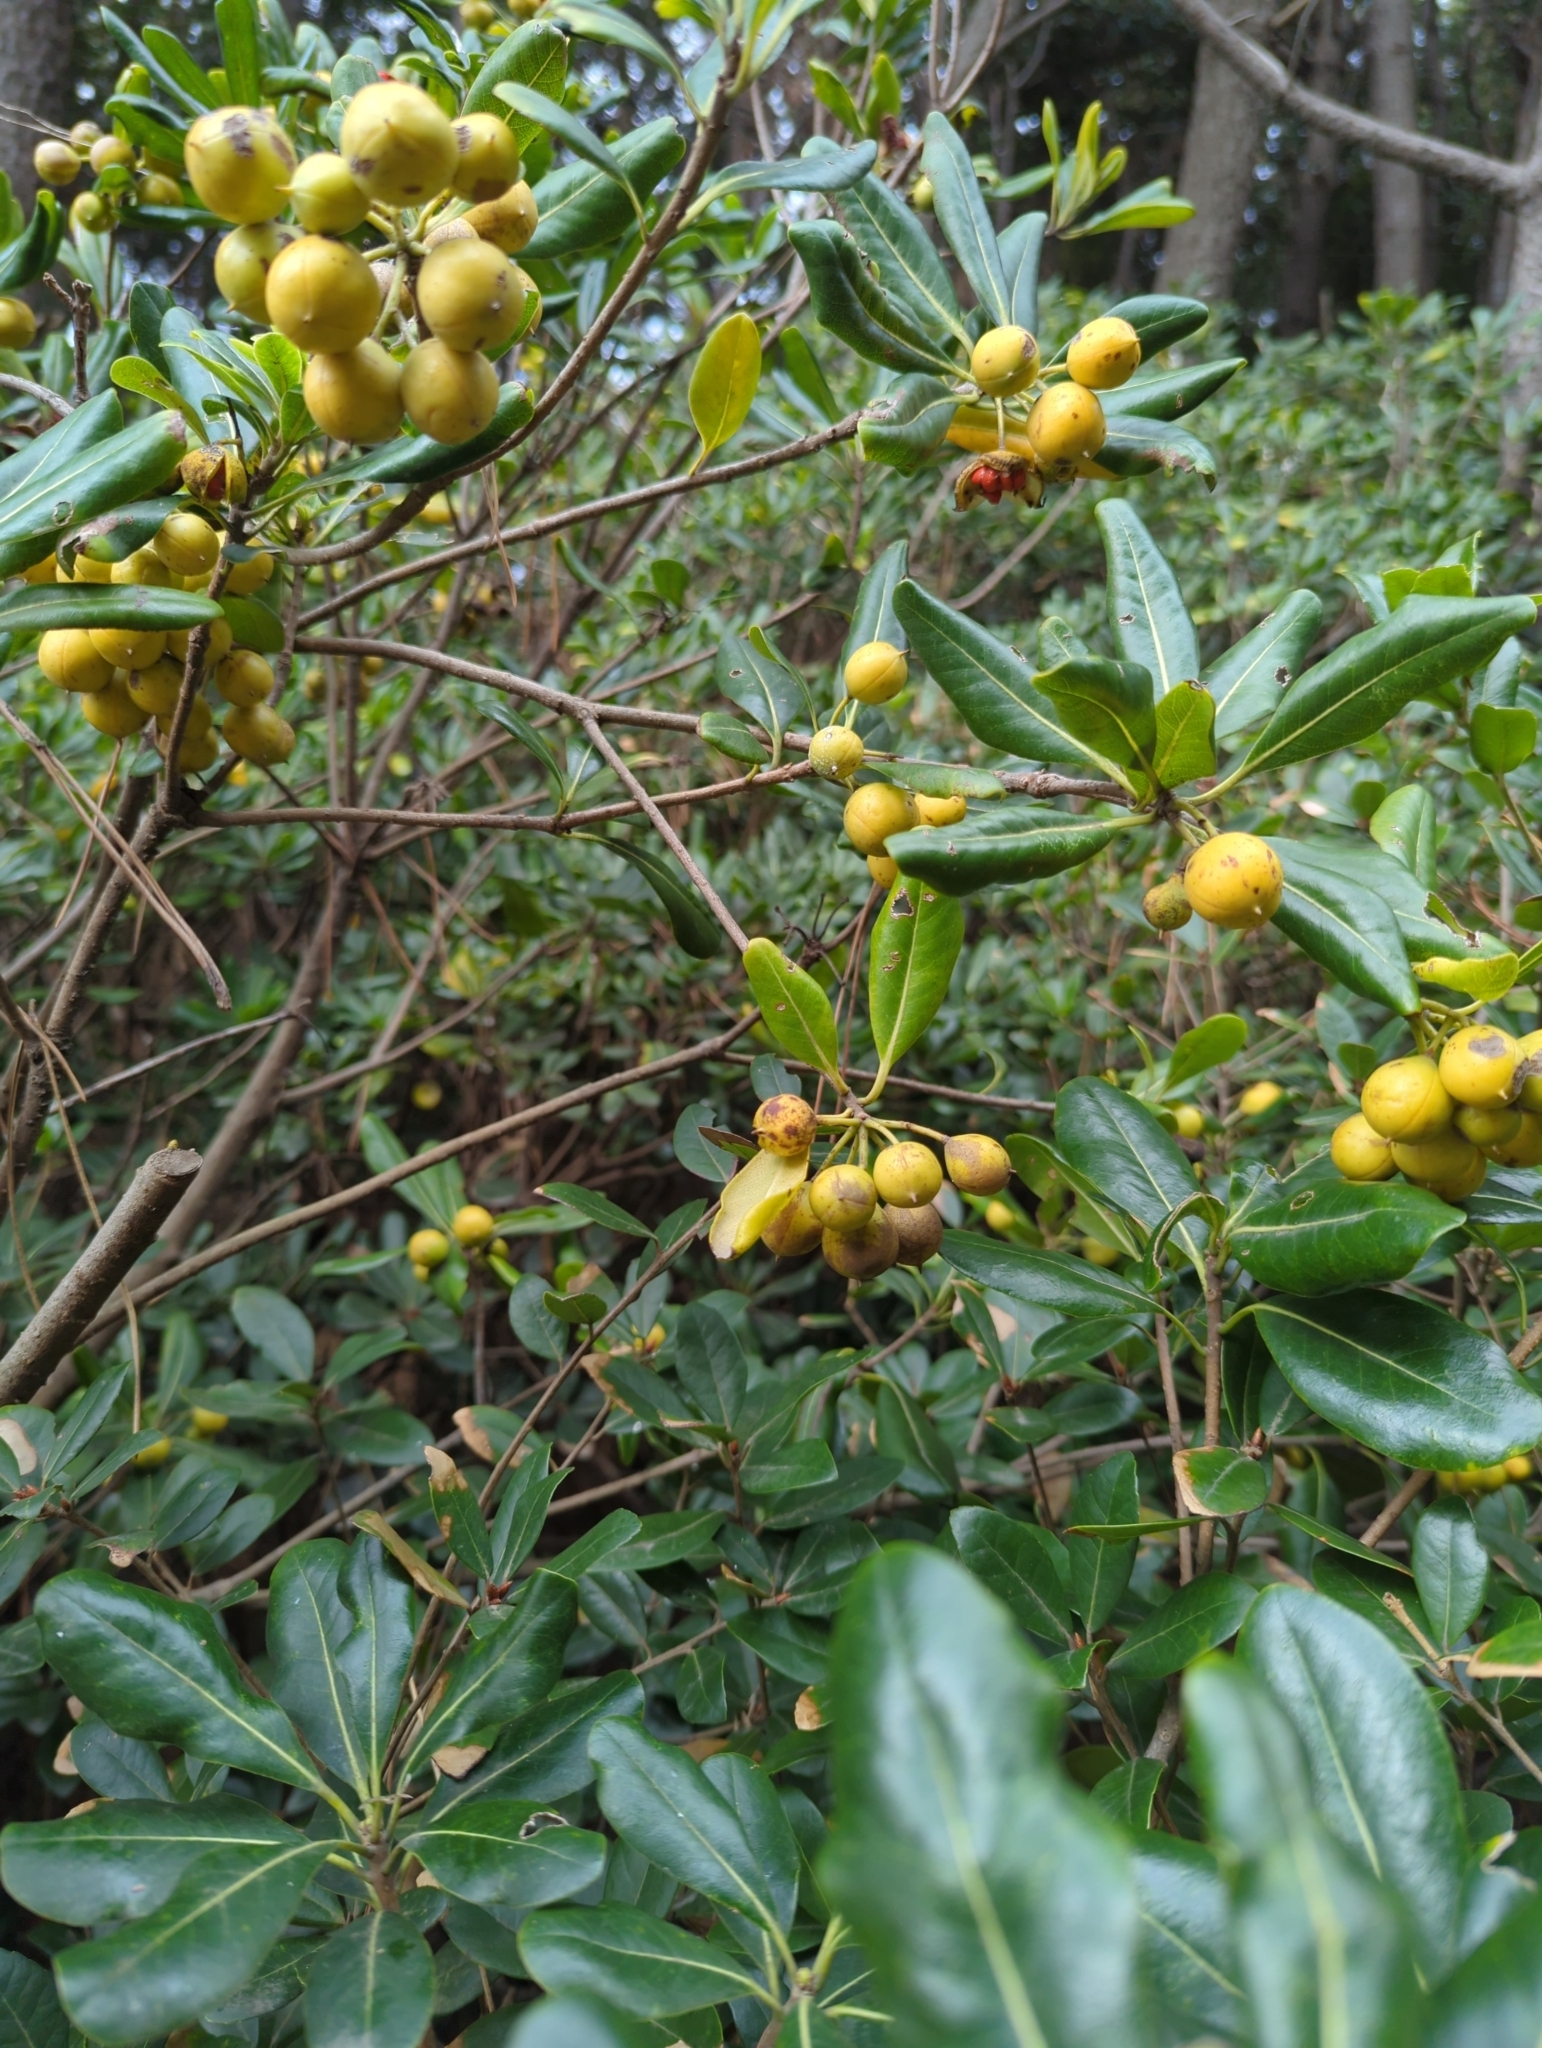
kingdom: Plantae
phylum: Tracheophyta
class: Magnoliopsida
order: Apiales
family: Pittosporaceae
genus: Pittosporum
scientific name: Pittosporum tobira
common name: Japanese cheesewood
